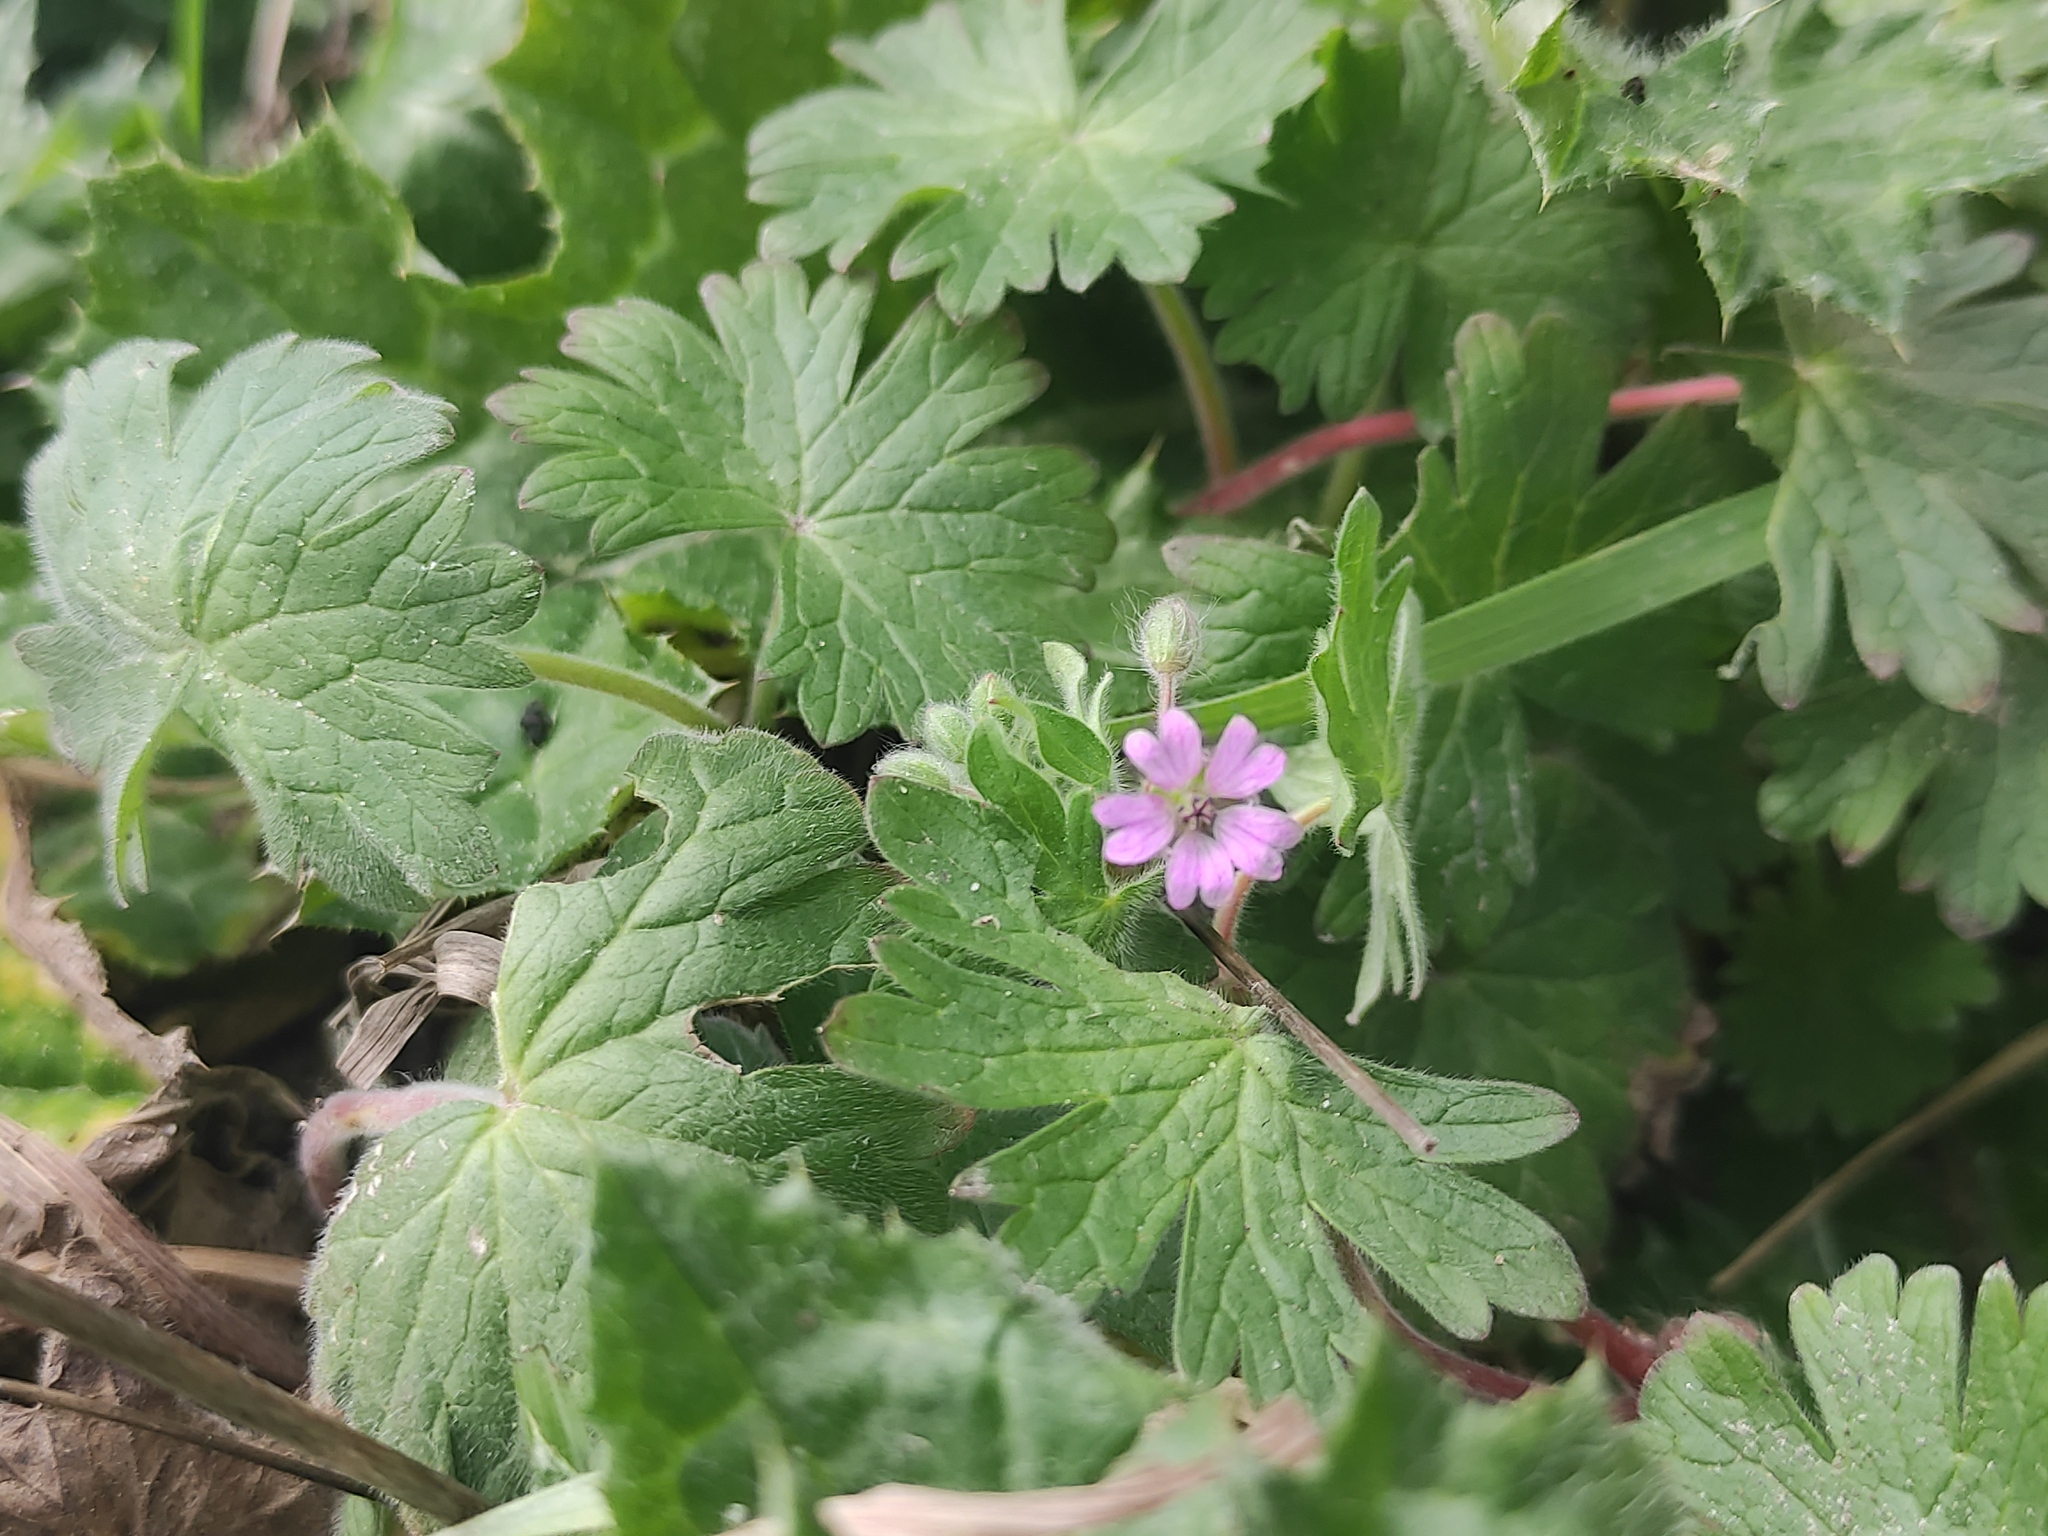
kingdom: Plantae
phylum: Tracheophyta
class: Magnoliopsida
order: Geraniales
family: Geraniaceae
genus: Geranium
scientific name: Geranium molle
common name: Dove's-foot crane's-bill
